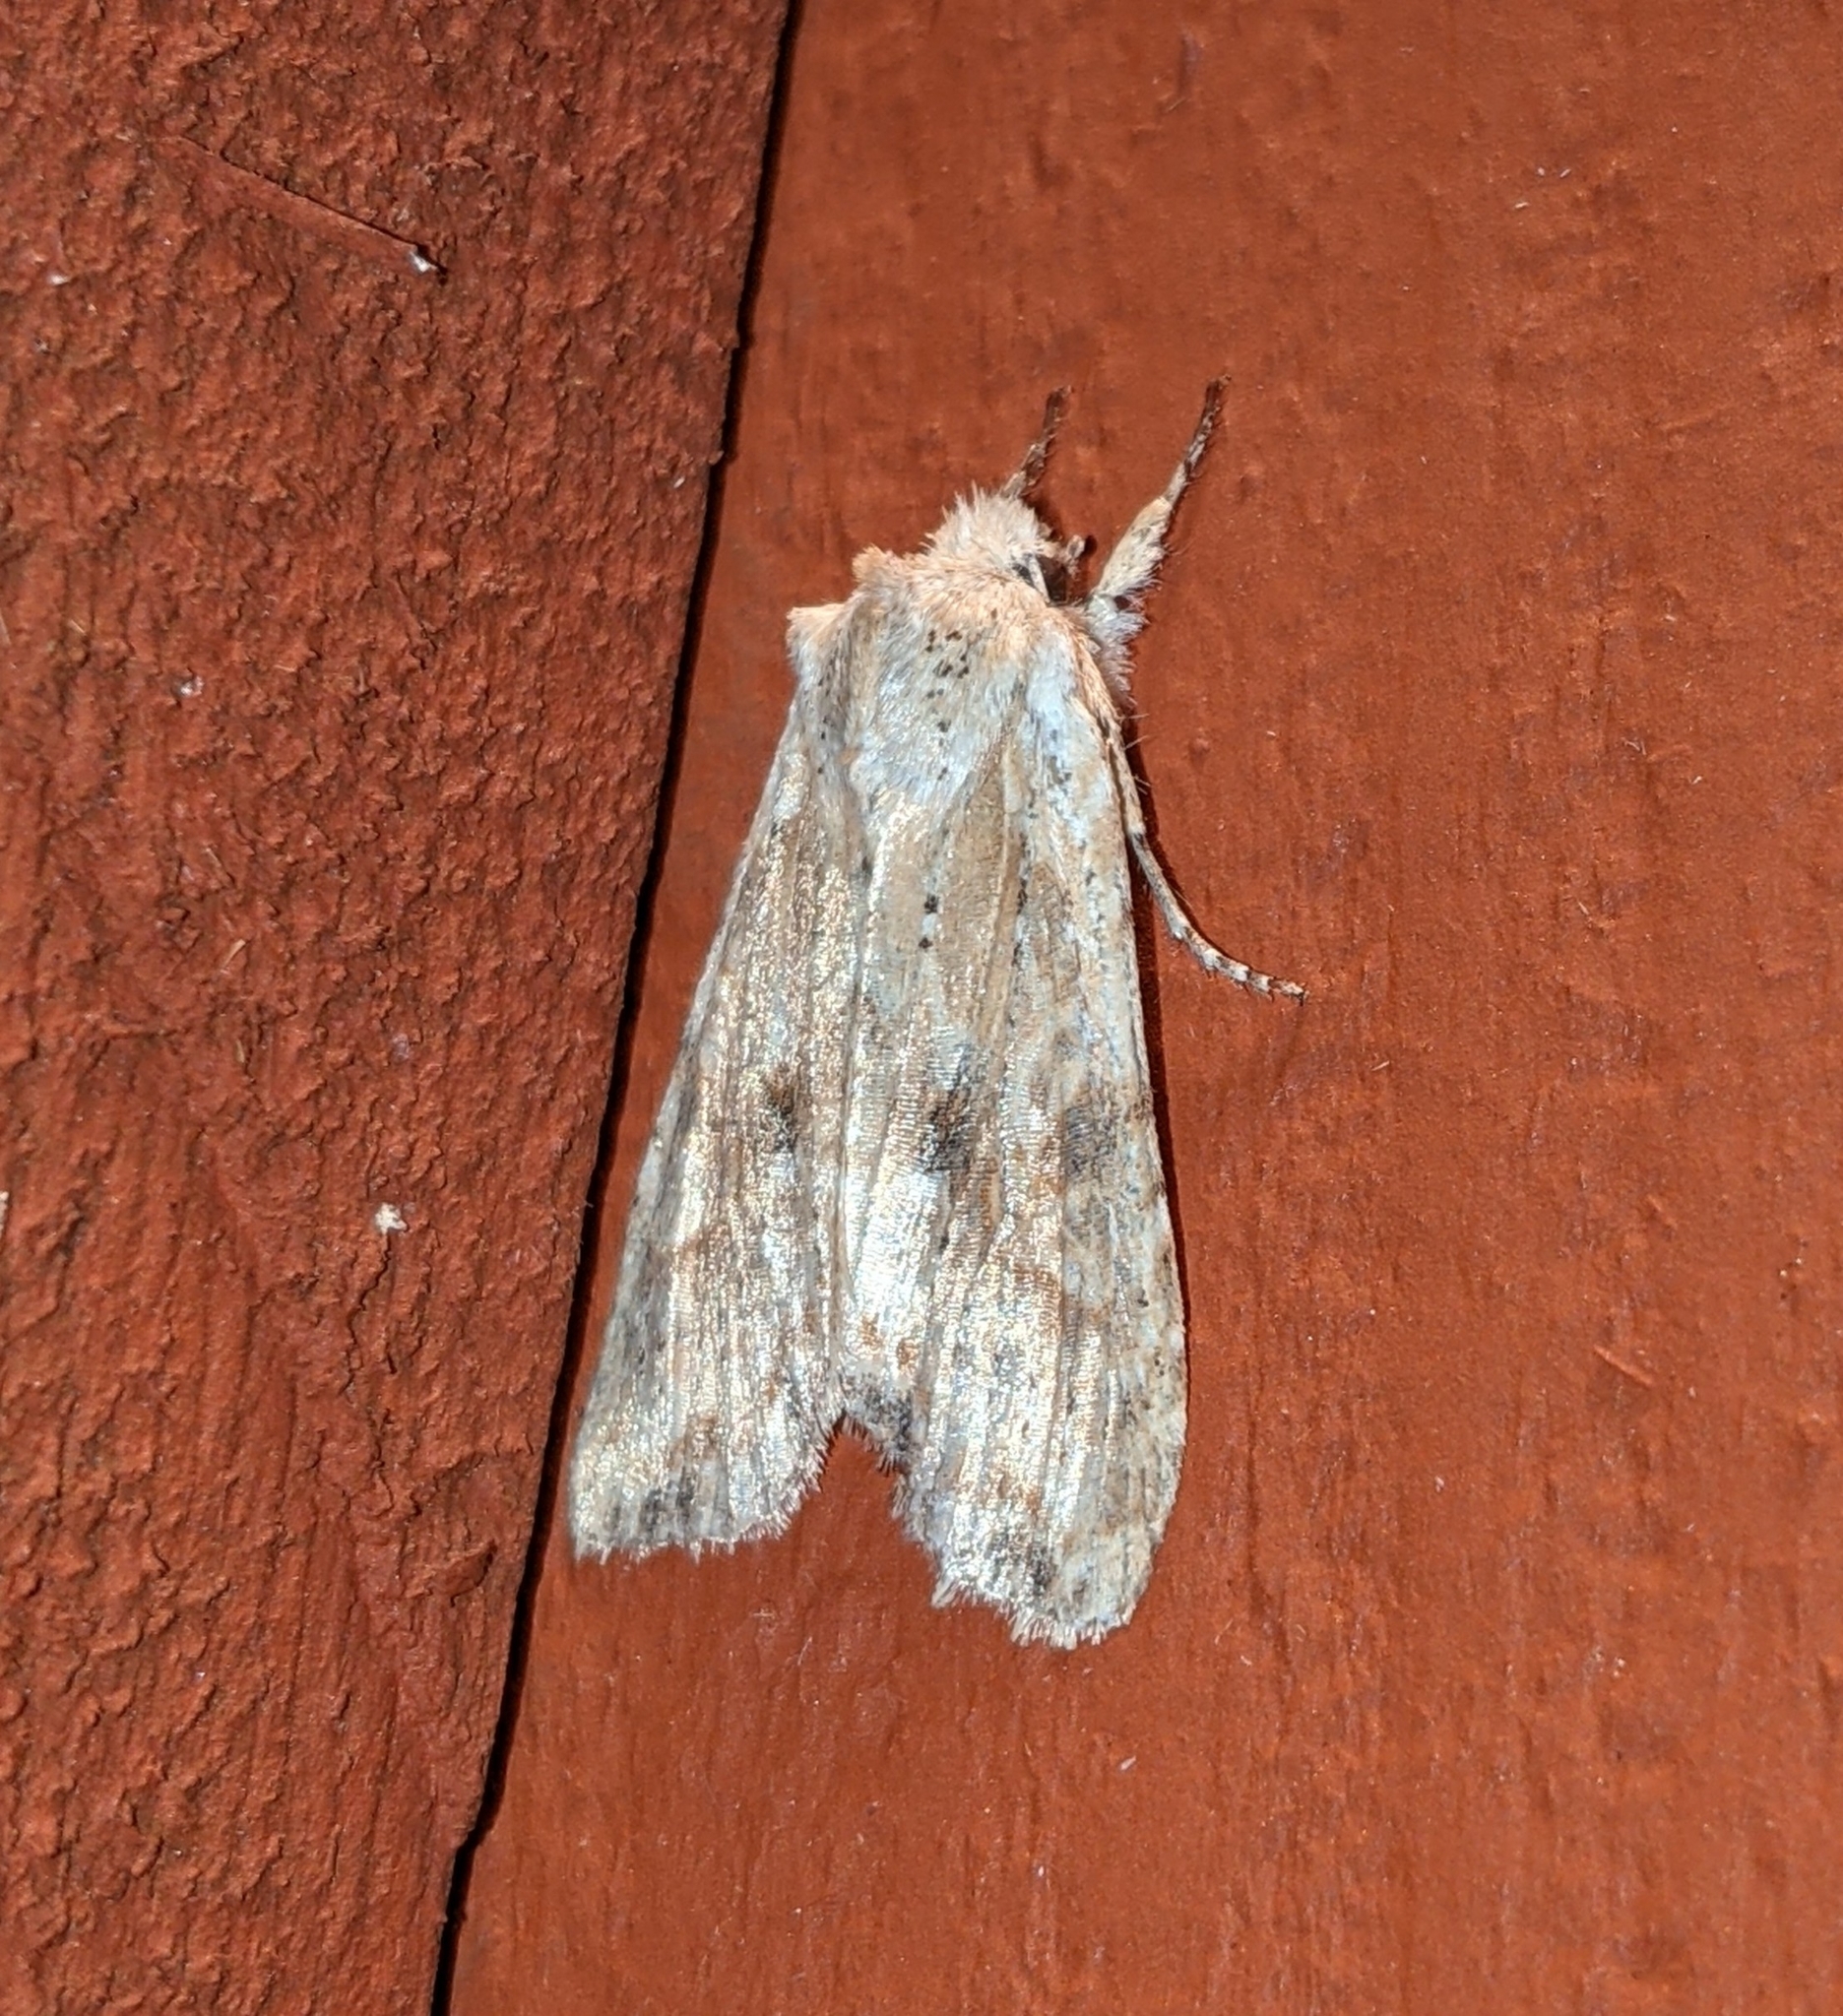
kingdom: Animalia
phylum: Arthropoda
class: Insecta
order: Lepidoptera
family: Noctuidae
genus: Lithophane
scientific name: Lithophane innominata
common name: Nameless pinion moth
